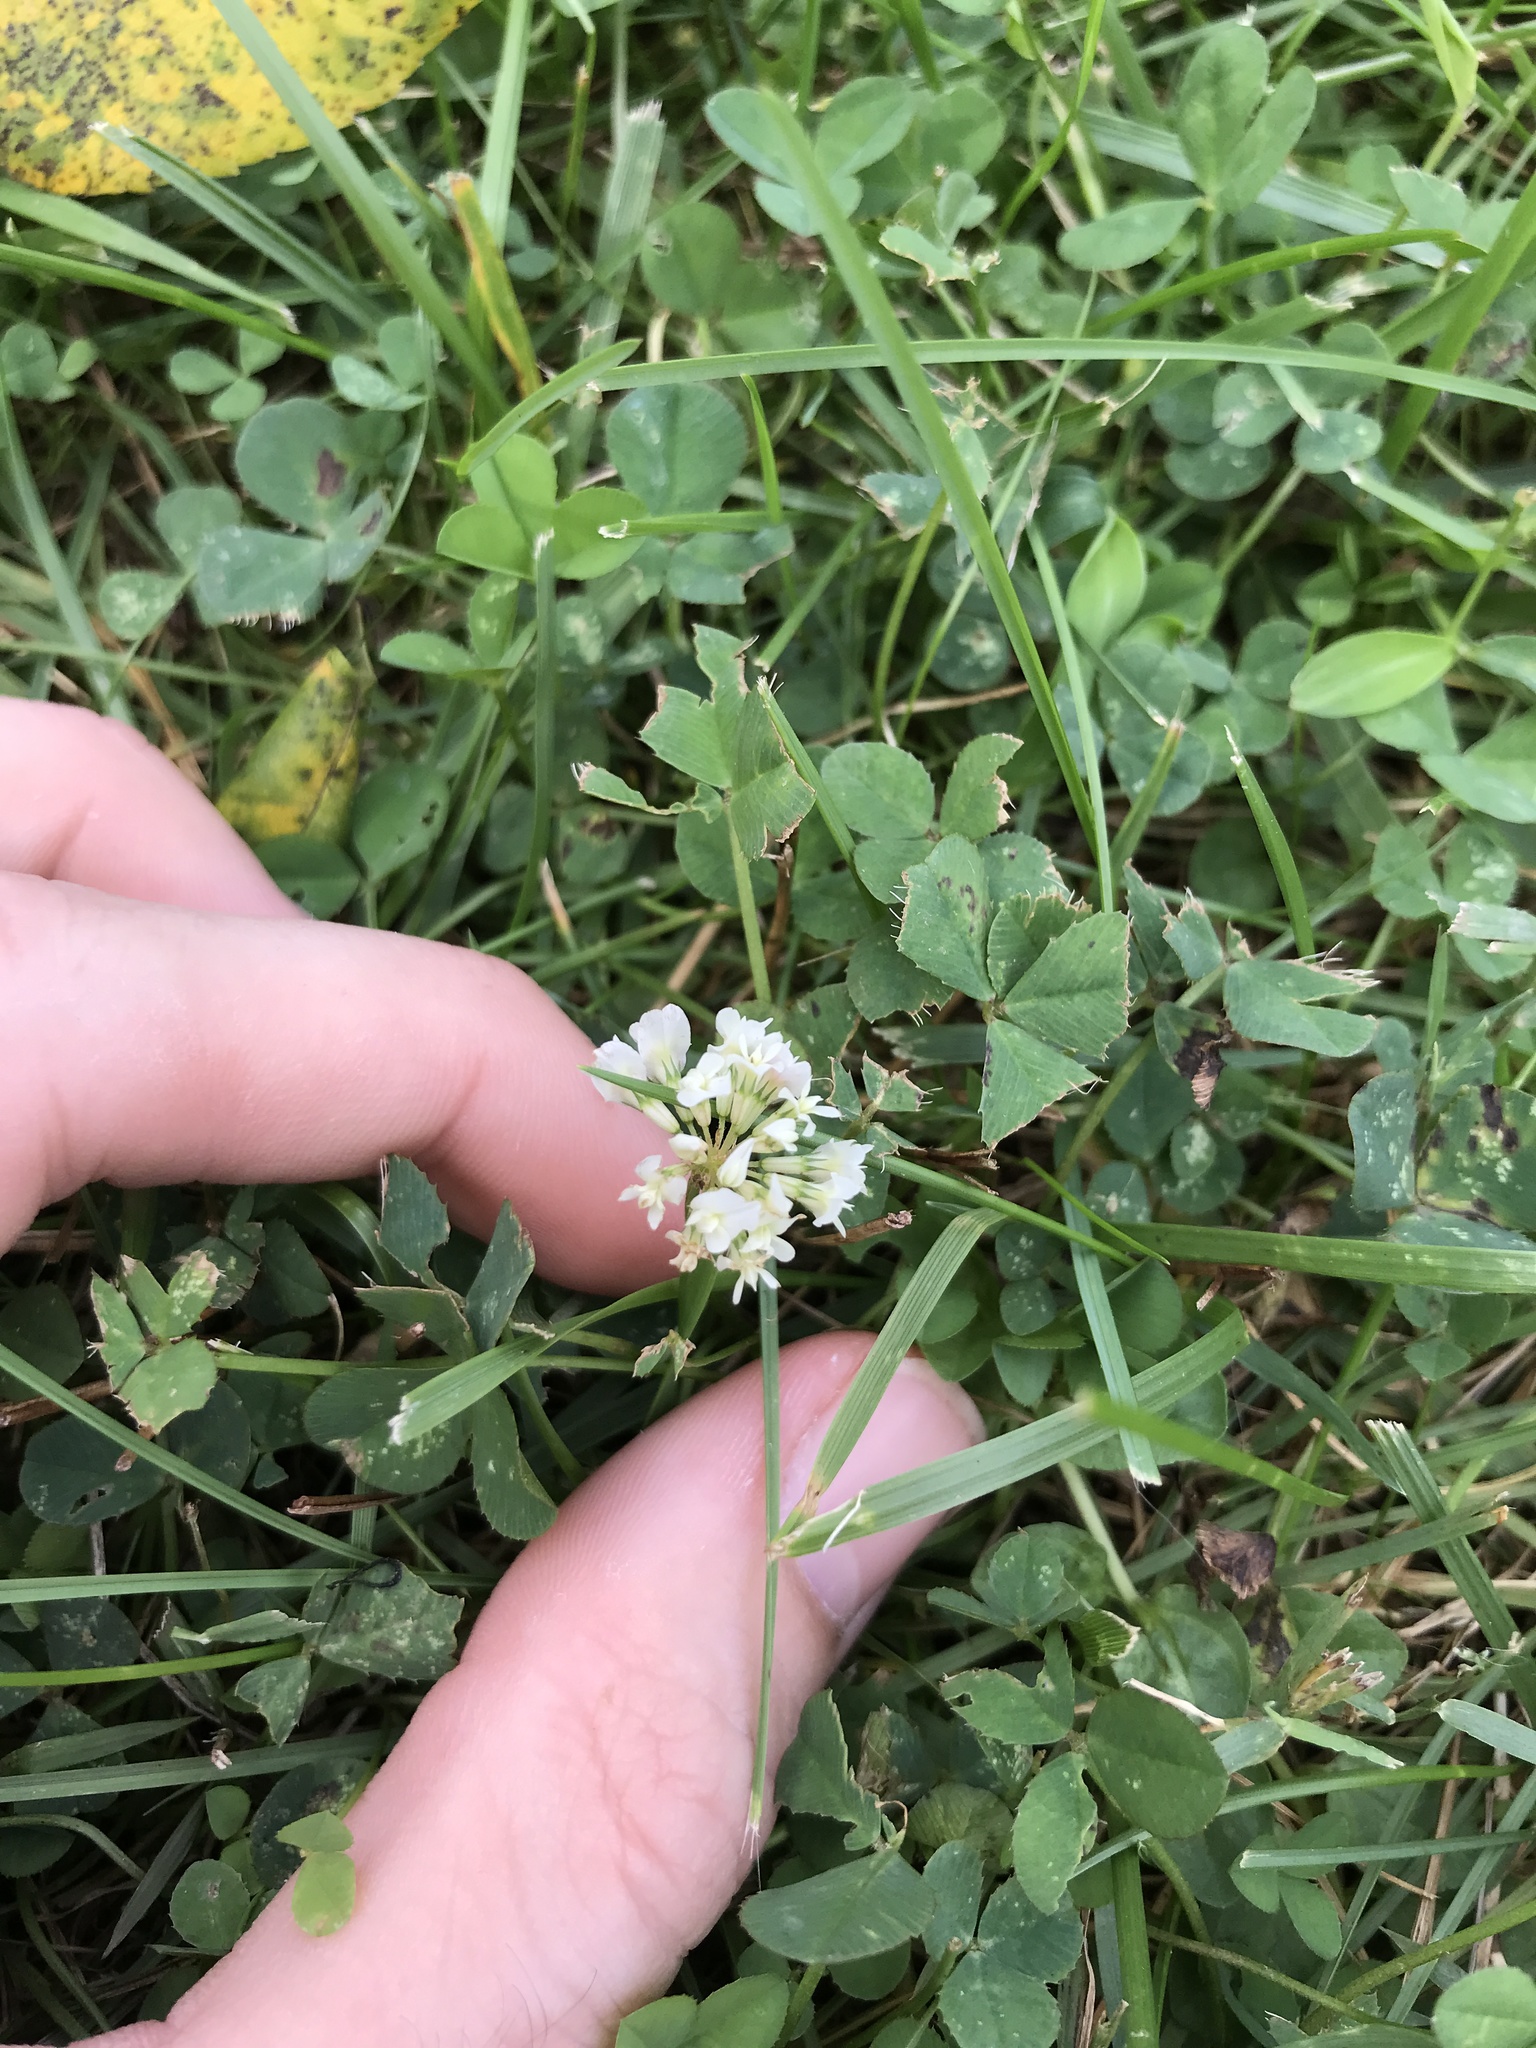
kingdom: Plantae
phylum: Tracheophyta
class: Magnoliopsida
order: Fabales
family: Fabaceae
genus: Trifolium
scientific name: Trifolium repens
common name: White clover
